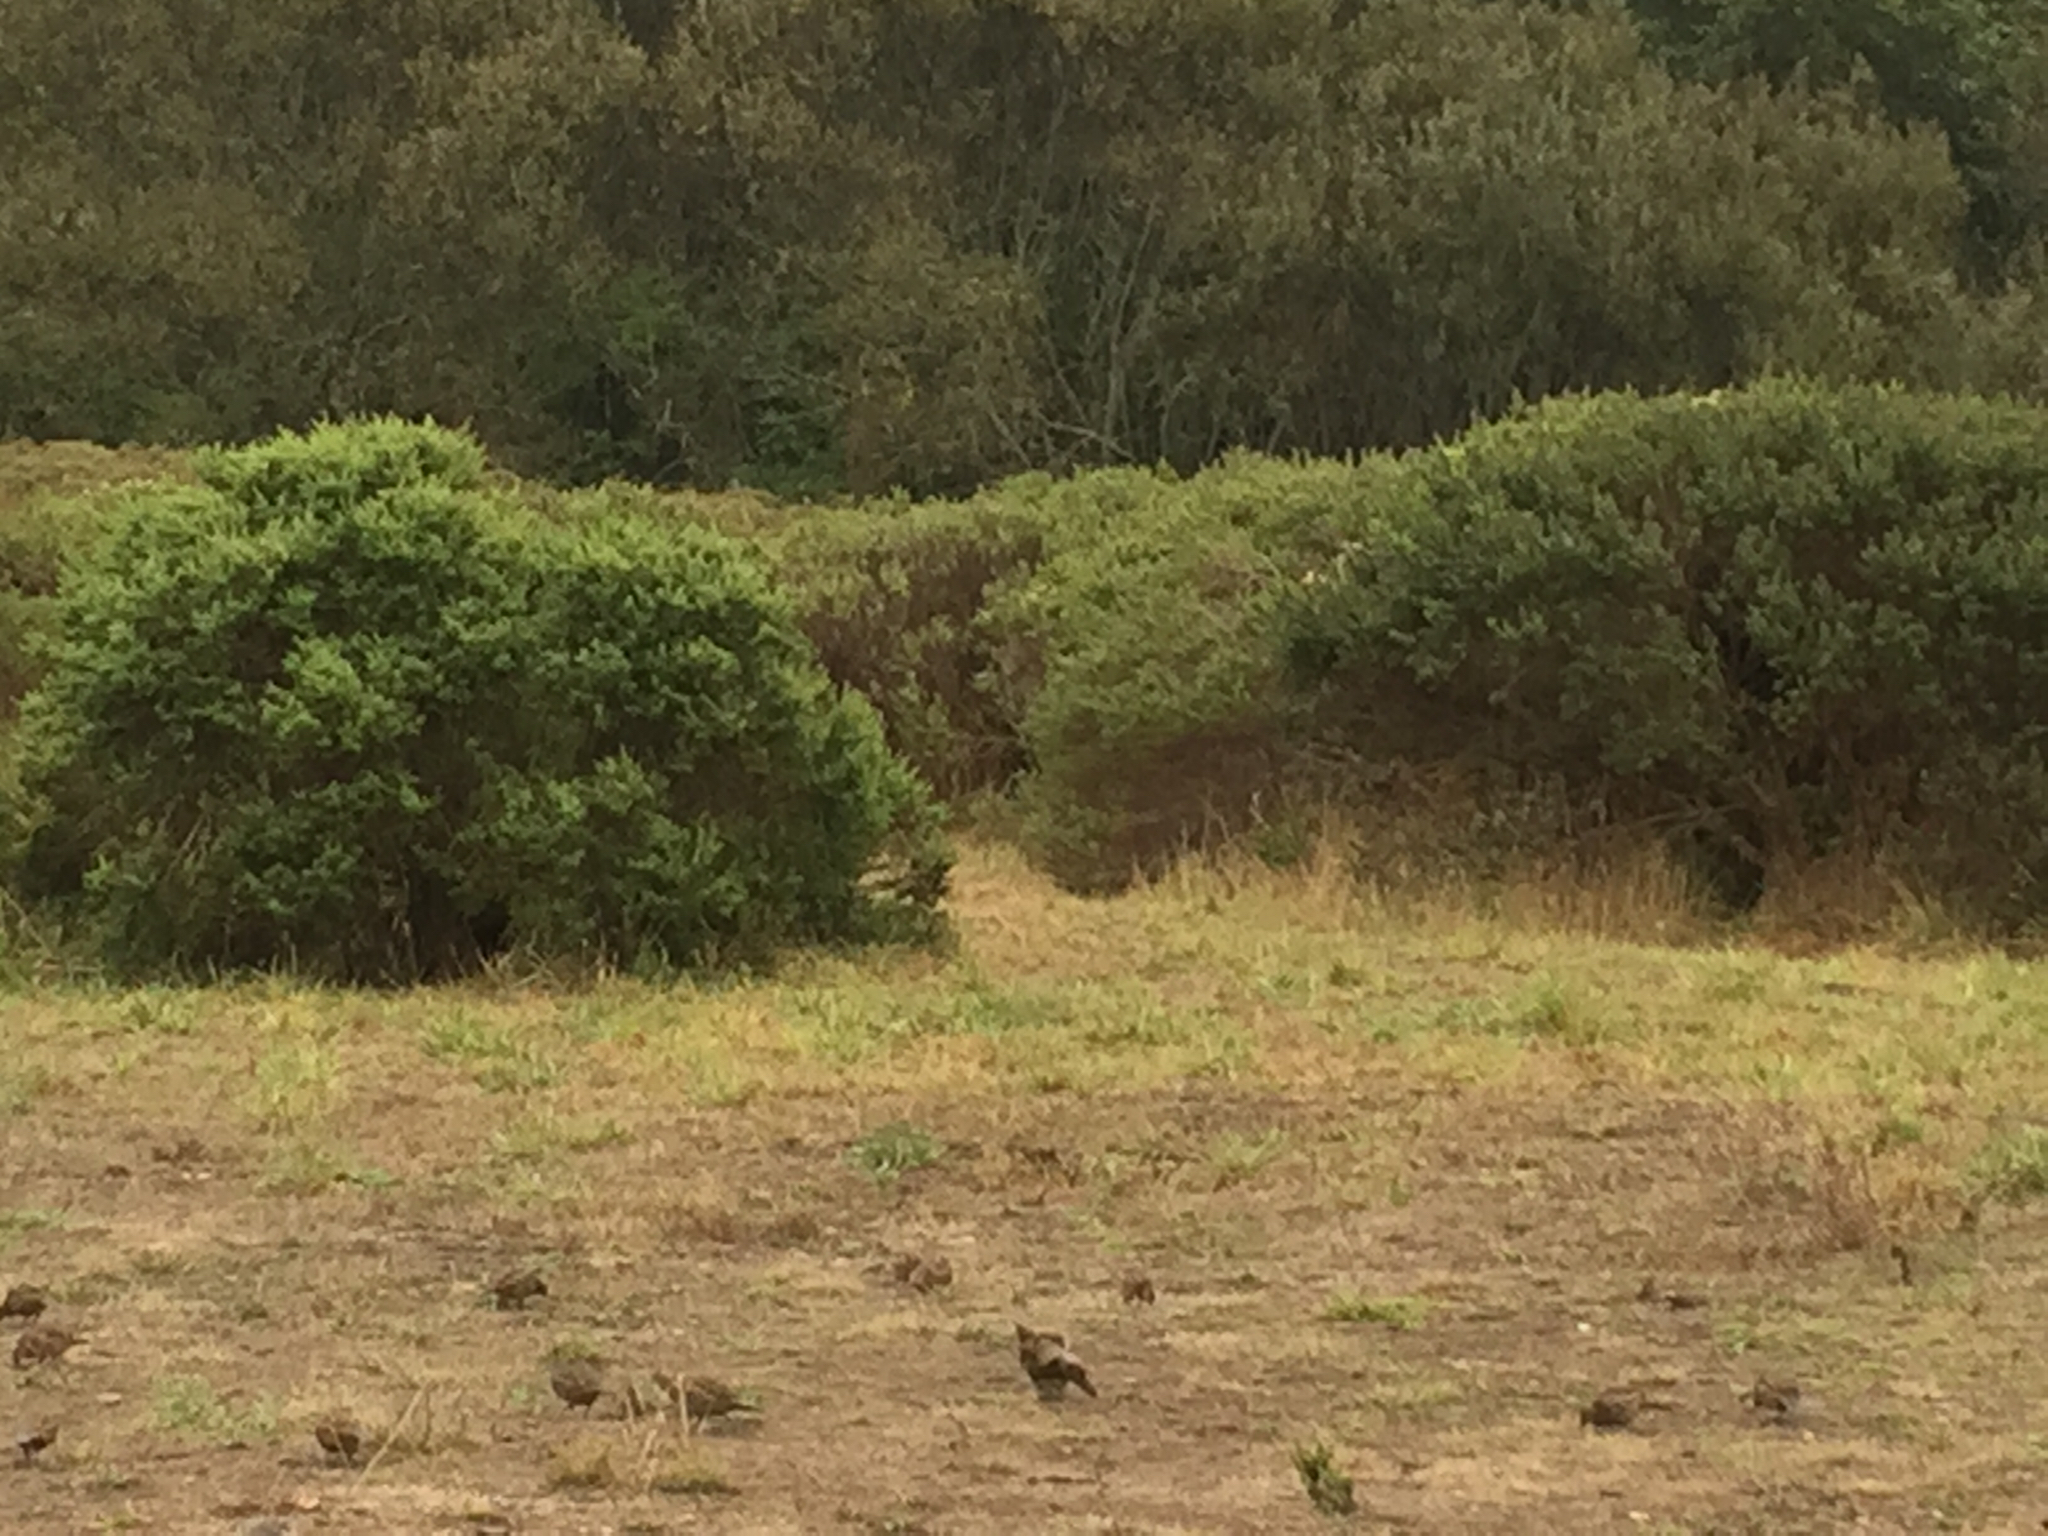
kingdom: Animalia
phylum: Chordata
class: Aves
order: Galliformes
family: Odontophoridae
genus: Callipepla
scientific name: Callipepla californica
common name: California quail
